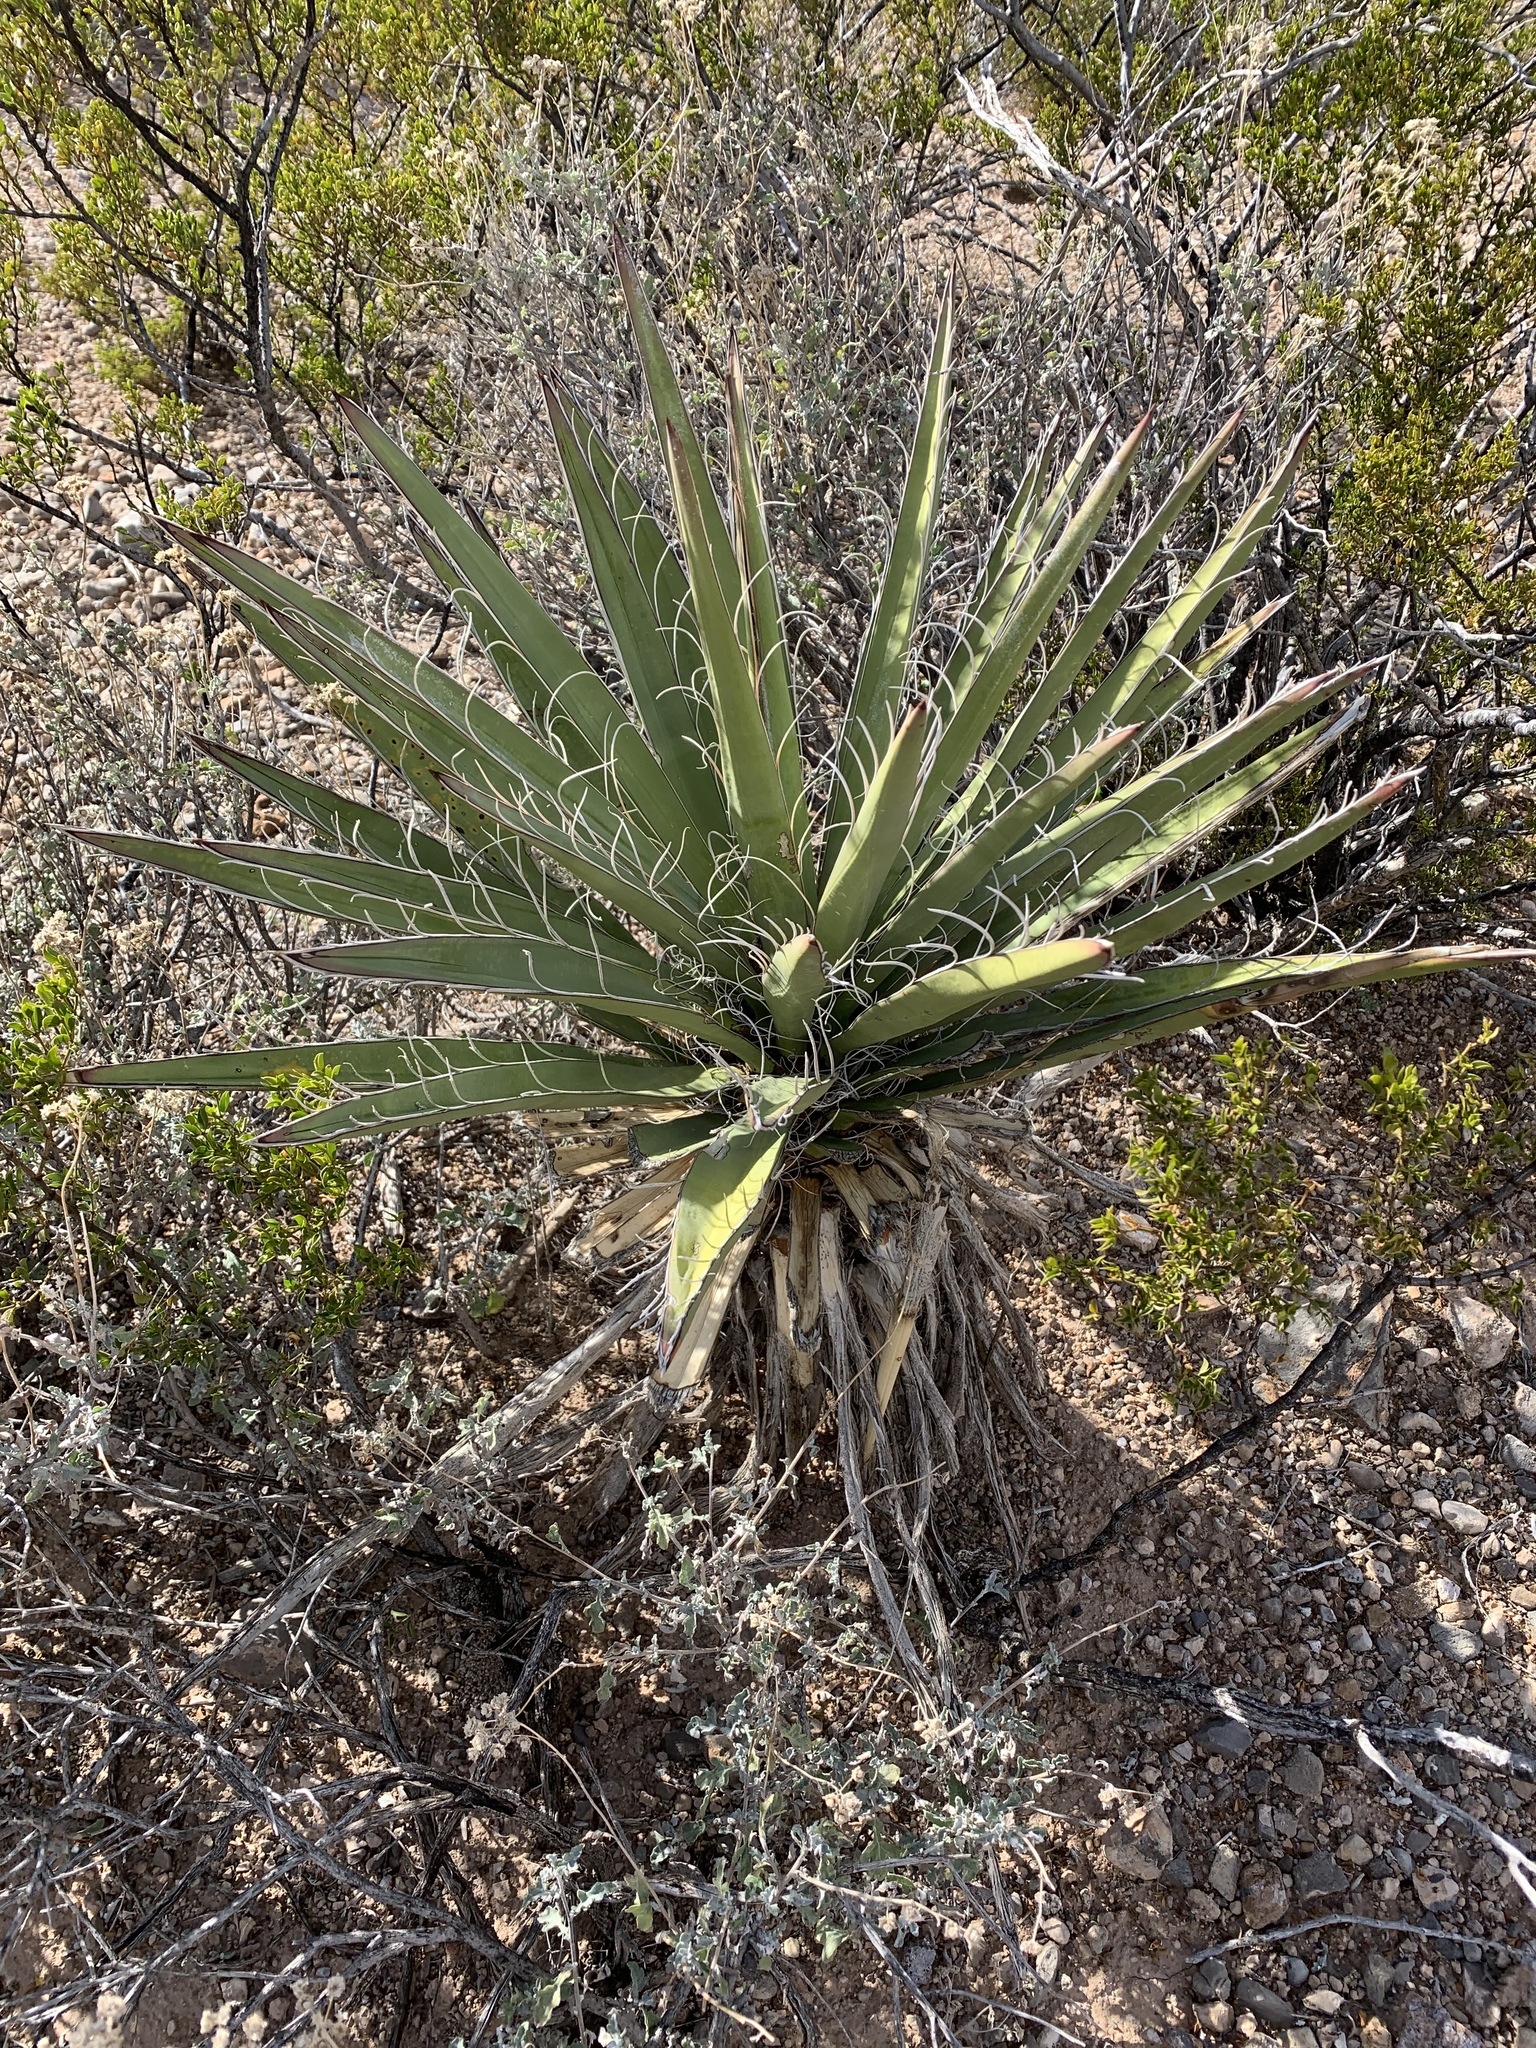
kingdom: Plantae
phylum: Tracheophyta
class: Liliopsida
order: Asparagales
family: Asparagaceae
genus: Yucca
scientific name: Yucca baccata
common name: Banana yucca
